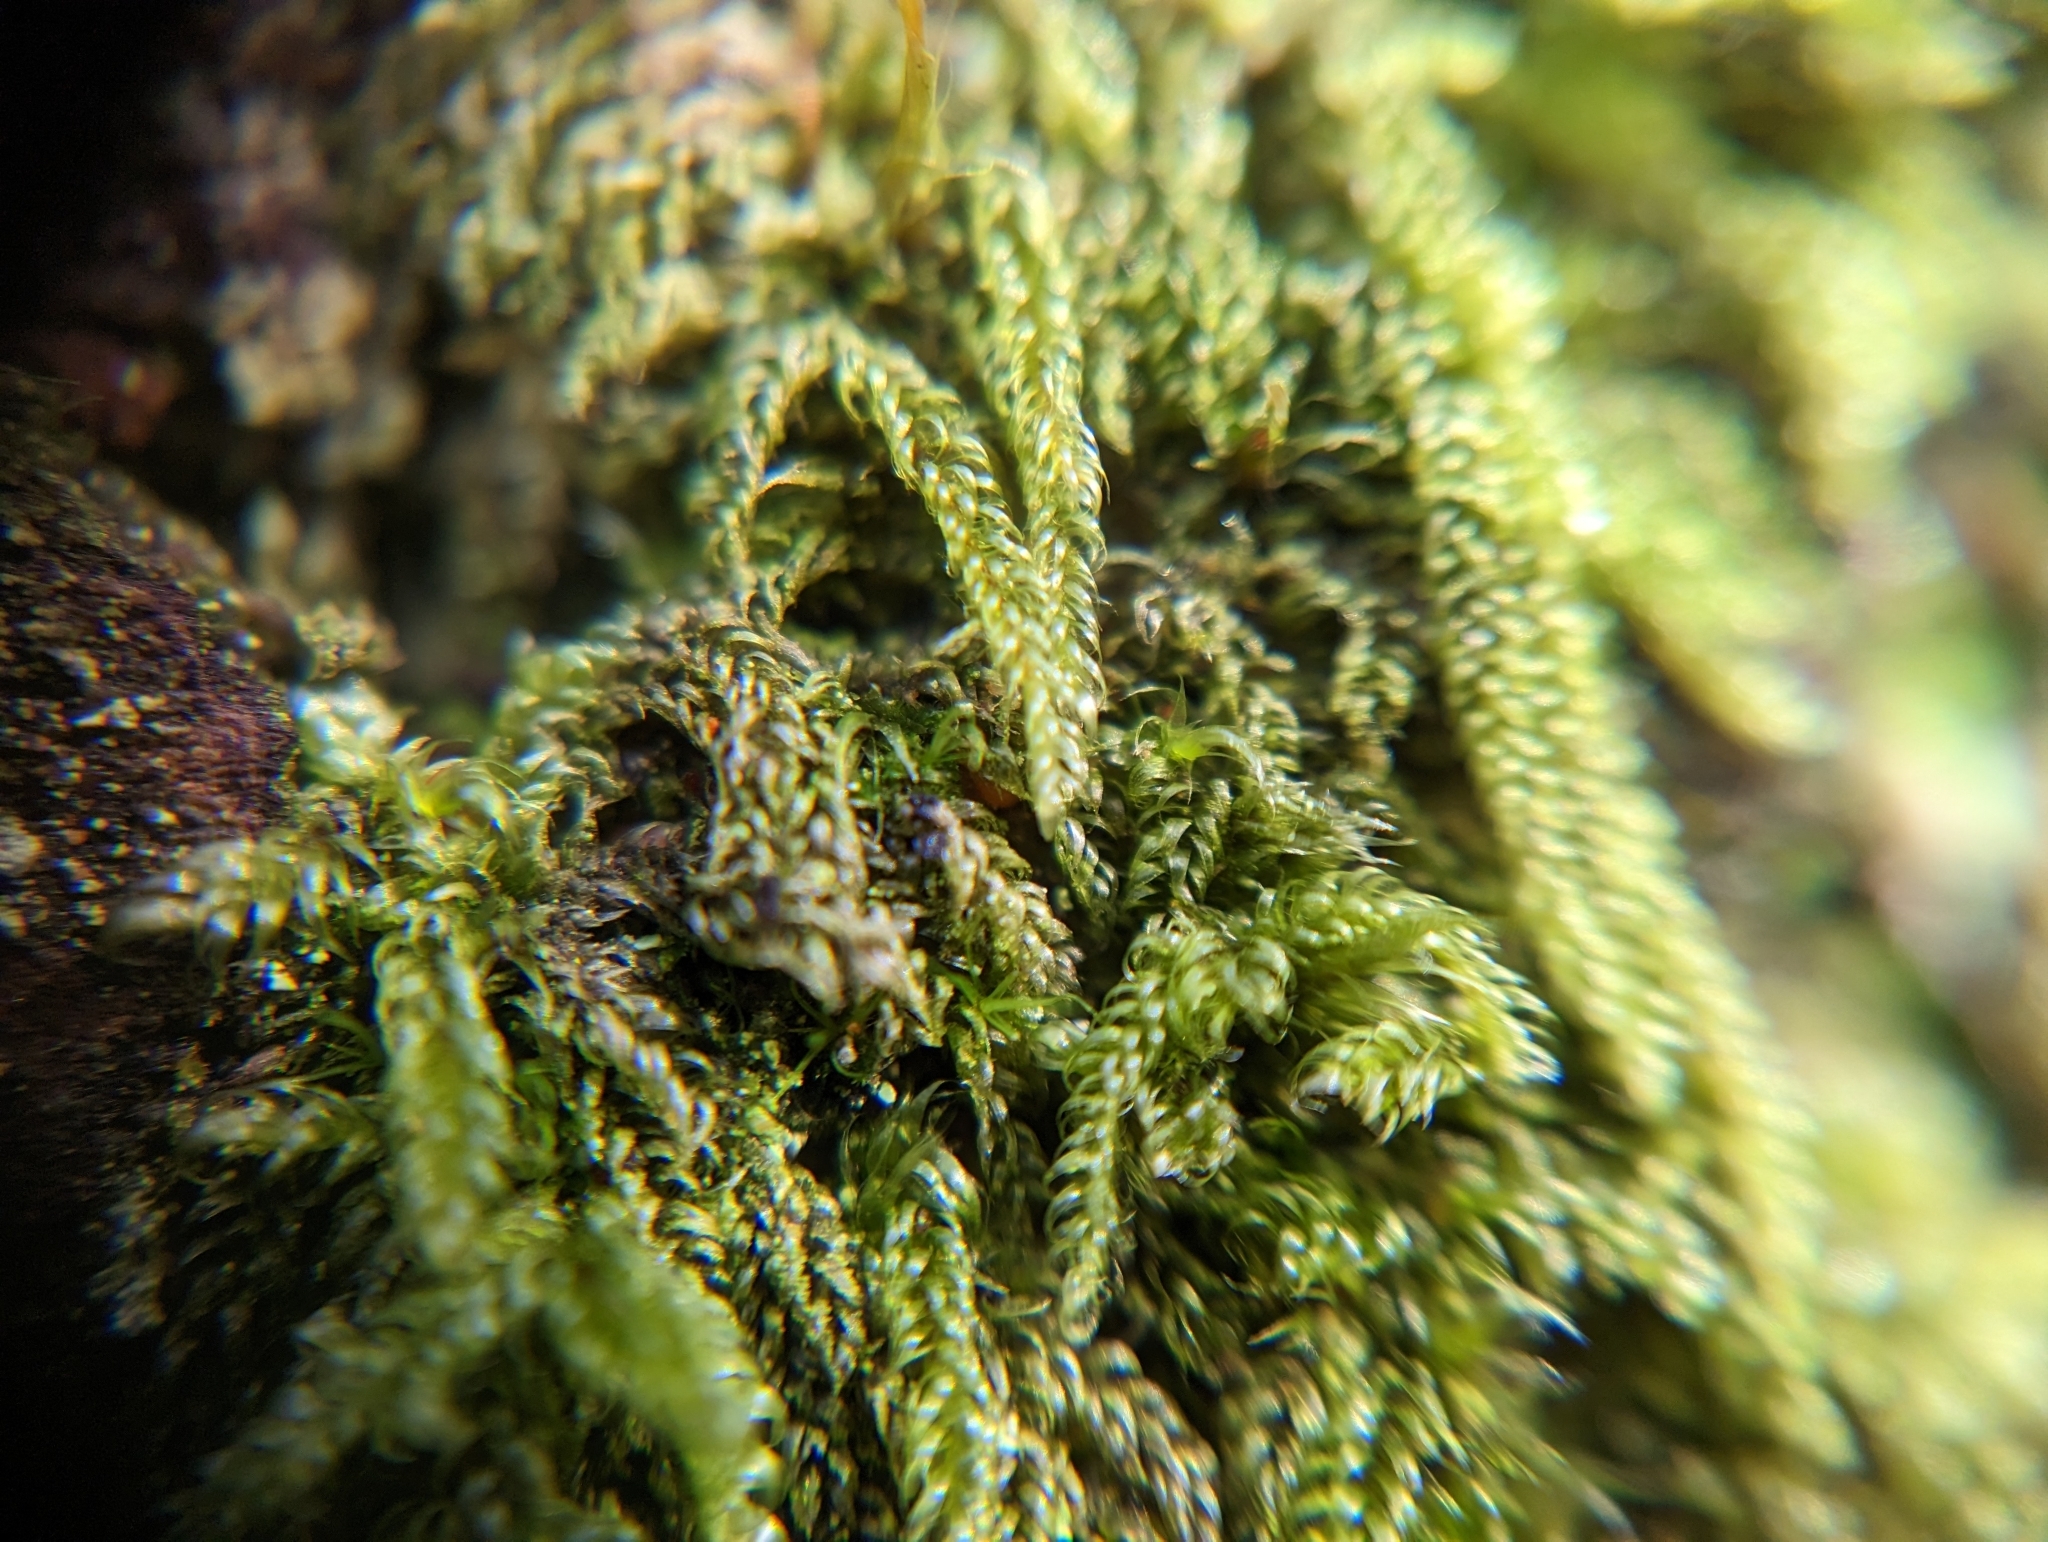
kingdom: Plantae
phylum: Bryophyta
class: Bryopsida
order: Hypnales
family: Pylaisiadelphaceae
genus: Trochophyllohypnum
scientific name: Trochophyllohypnum circinale
